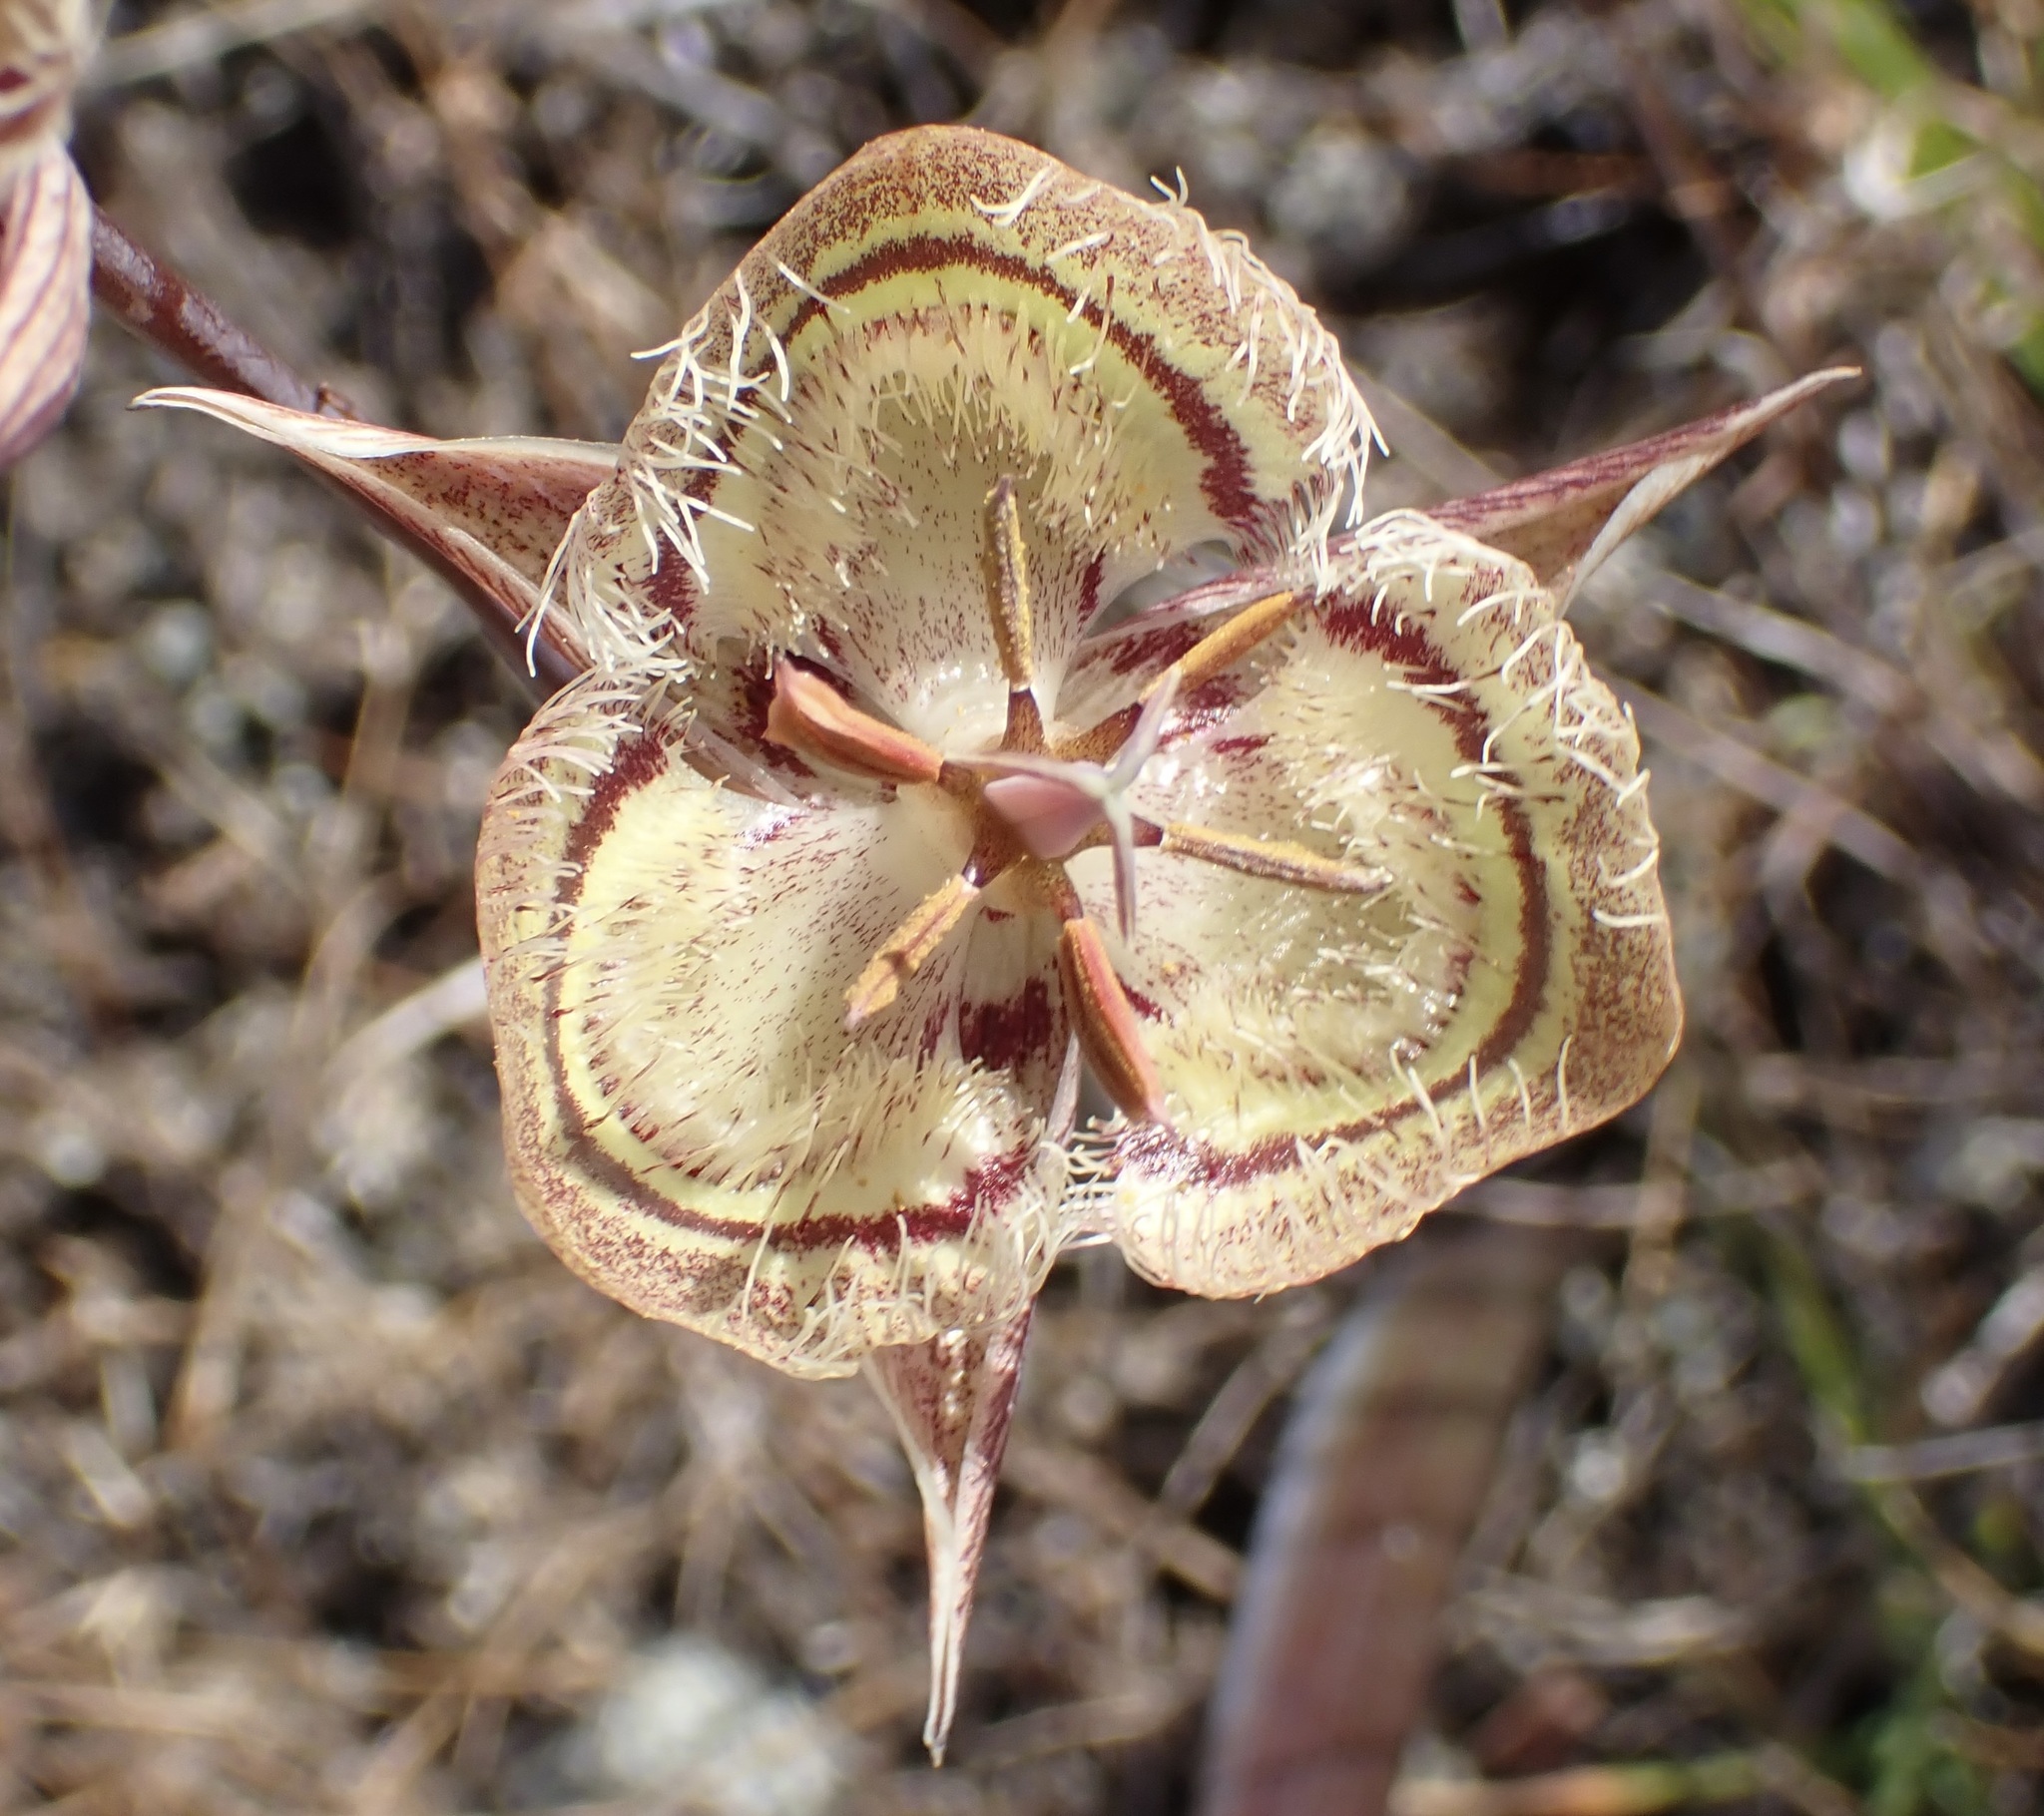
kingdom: Plantae
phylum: Tracheophyta
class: Liliopsida
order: Liliales
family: Liliaceae
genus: Calochortus
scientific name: Calochortus tiburonensis
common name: Tiburon mariposa-lily
